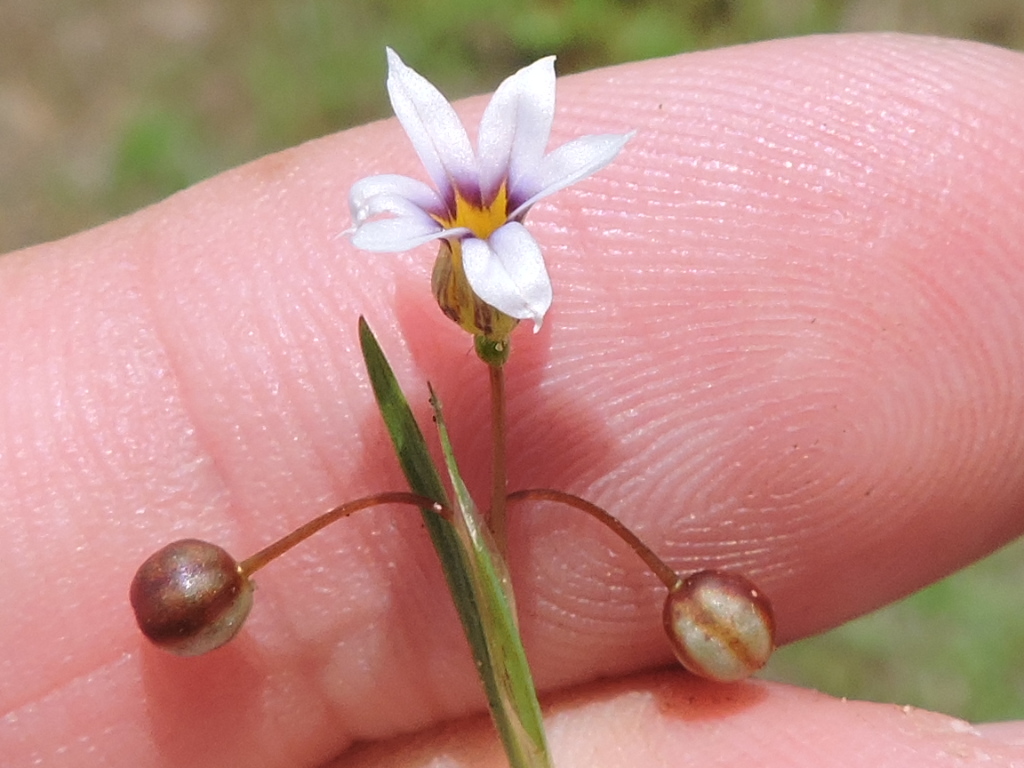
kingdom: Plantae
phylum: Tracheophyta
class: Liliopsida
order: Asparagales
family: Iridaceae
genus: Sisyrinchium
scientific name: Sisyrinchium micranthum
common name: Bermuda pigroot
